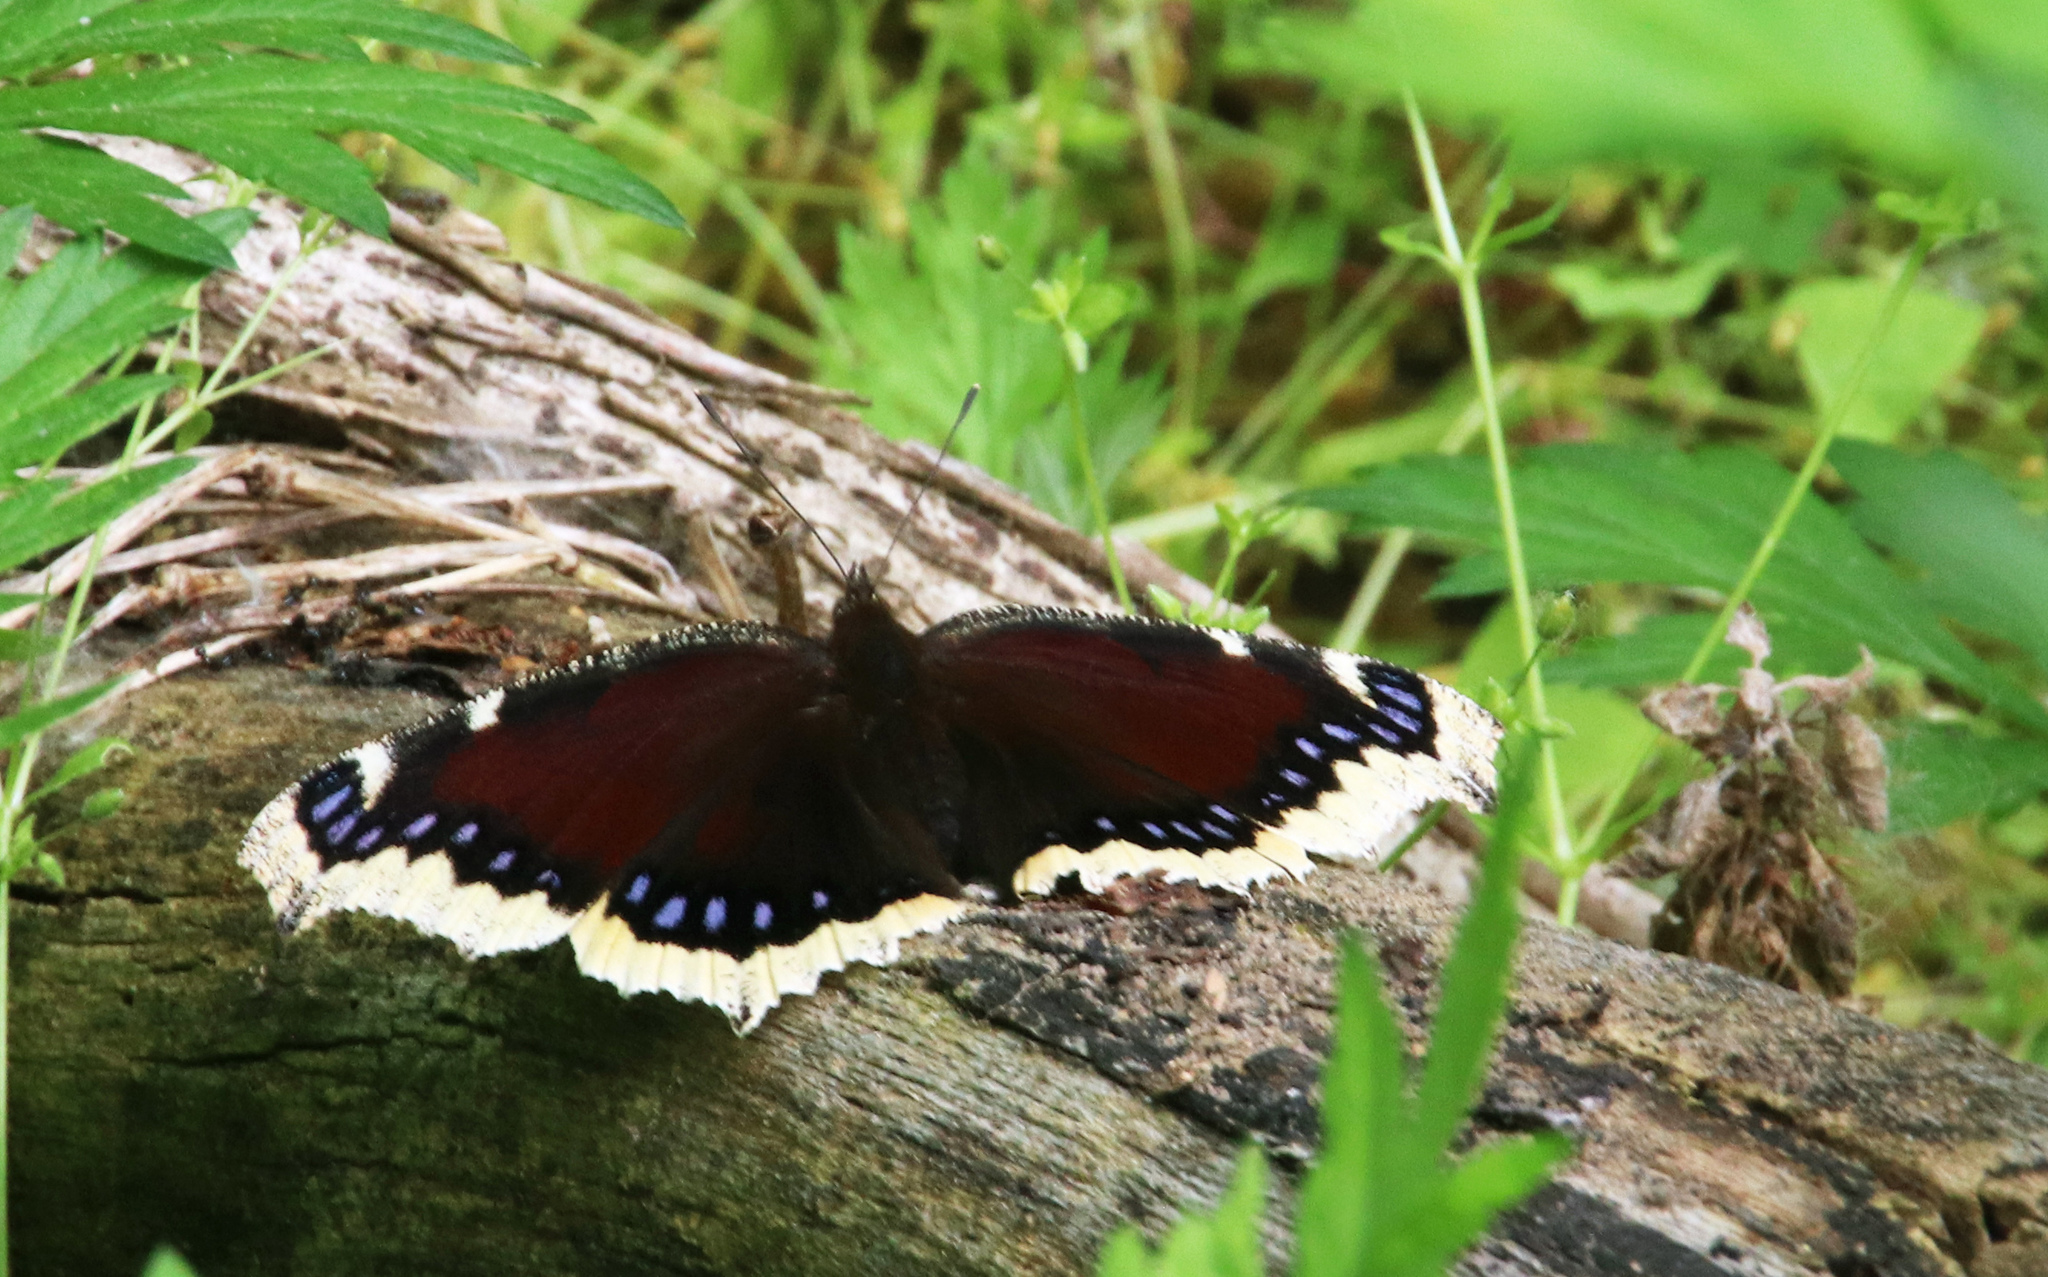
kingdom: Animalia
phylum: Arthropoda
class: Insecta
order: Lepidoptera
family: Nymphalidae
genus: Nymphalis
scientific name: Nymphalis antiopa
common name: Camberwell beauty
